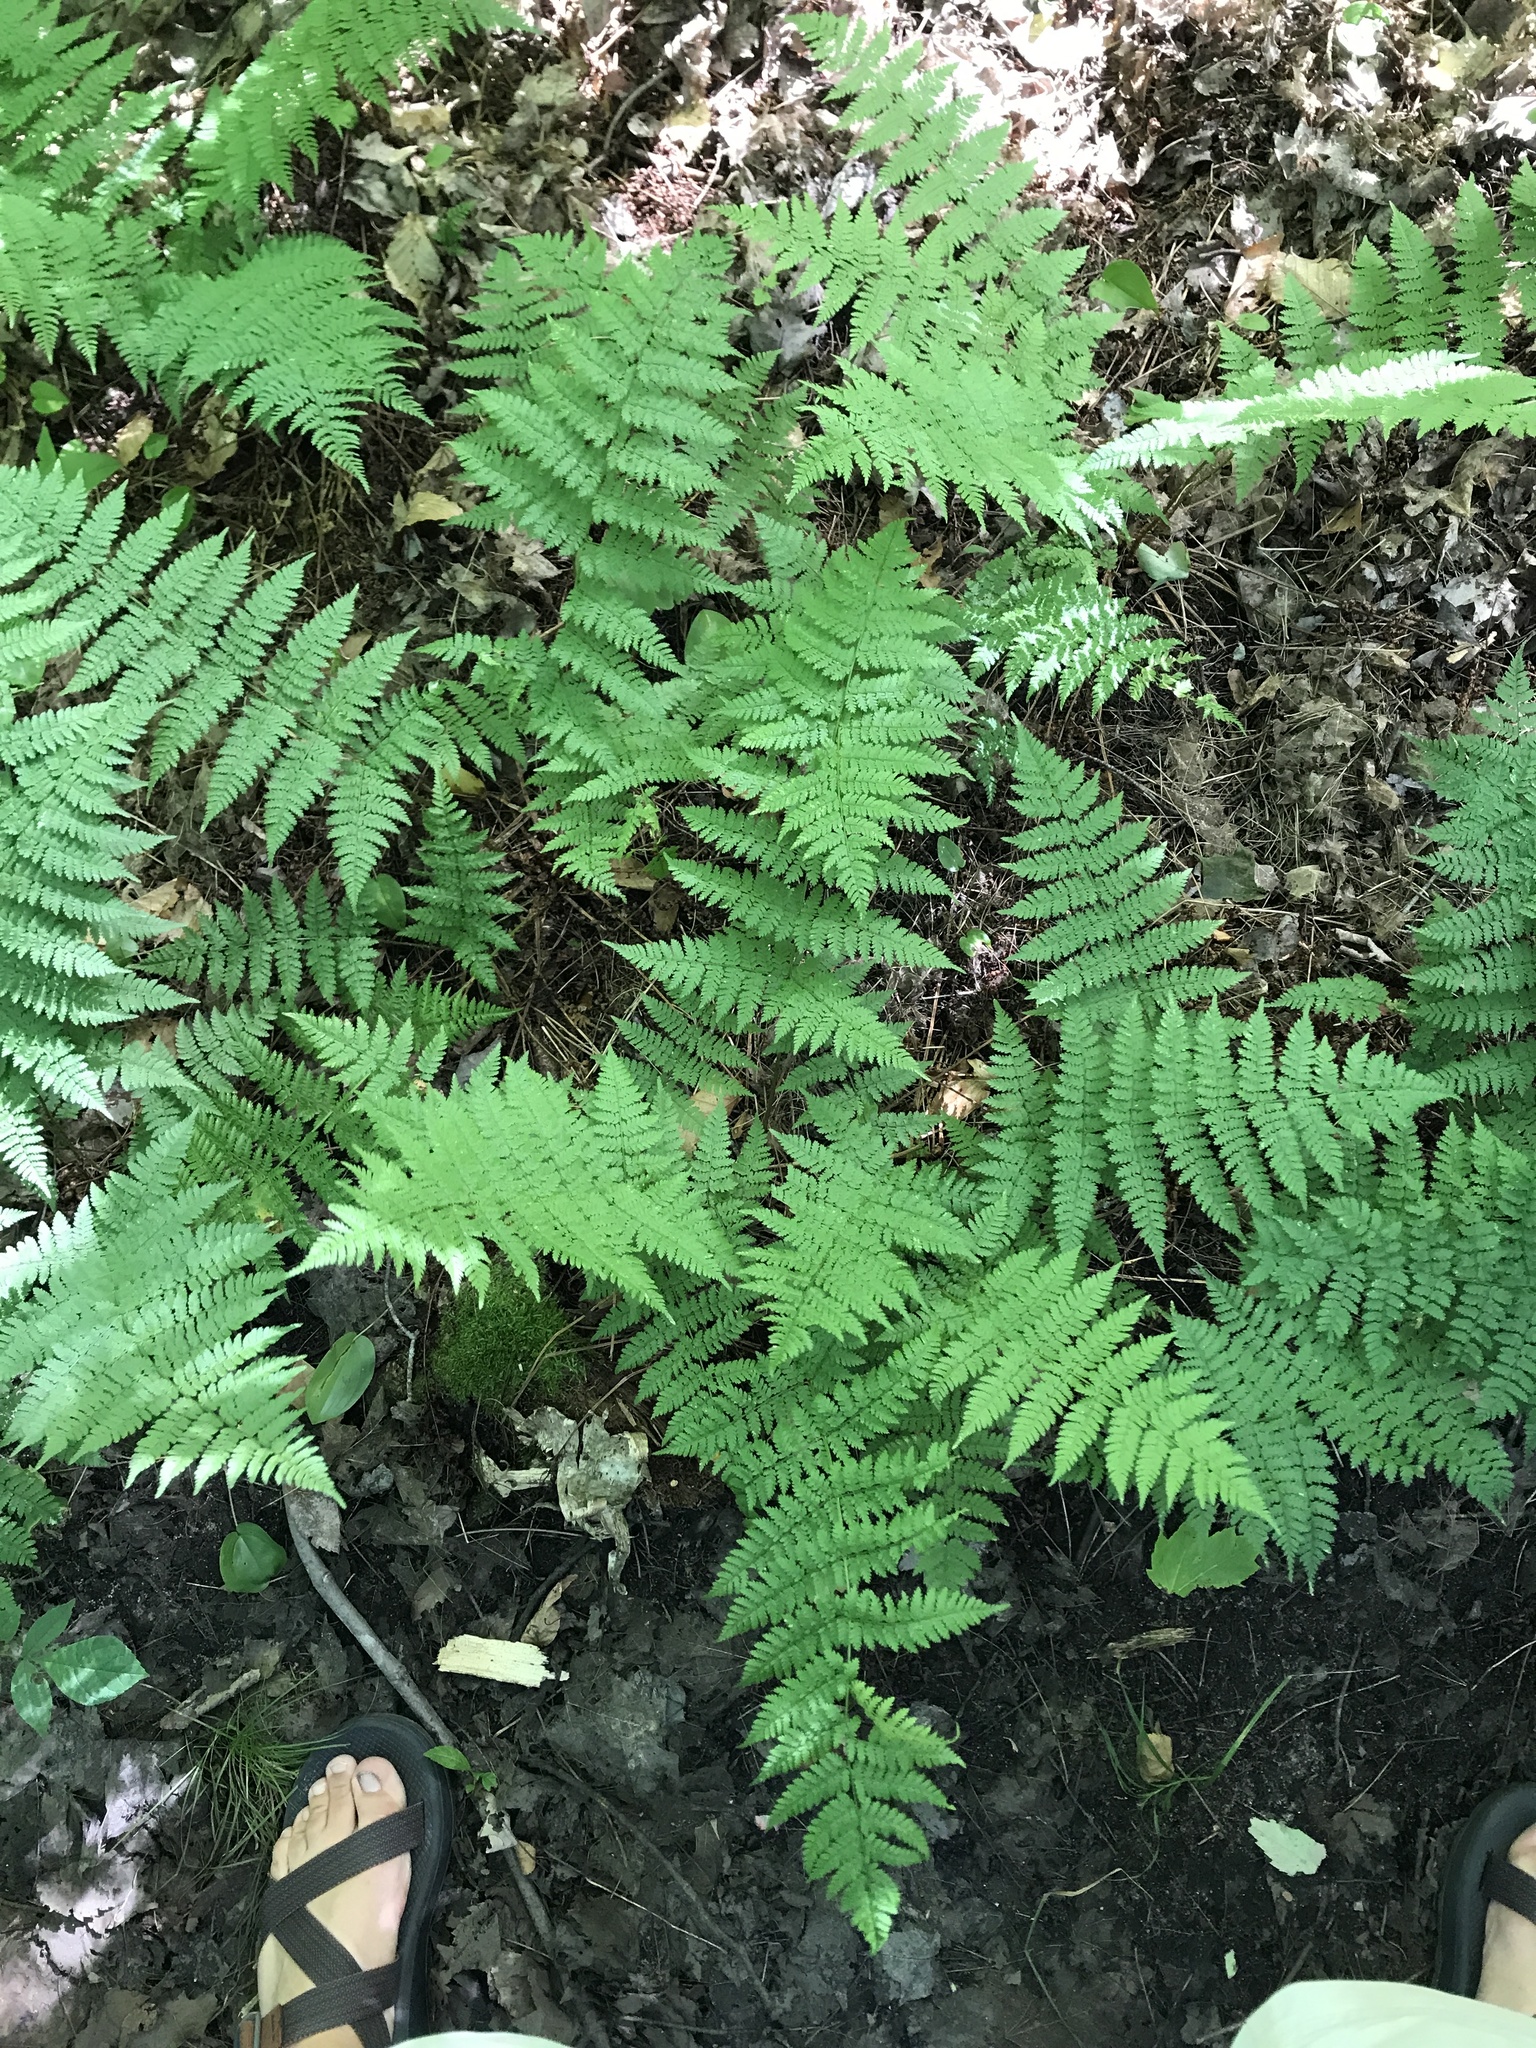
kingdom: Plantae
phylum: Tracheophyta
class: Polypodiopsida
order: Polypodiales
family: Dryopteridaceae
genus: Dryopteris
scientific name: Dryopteris intermedia
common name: Evergreen wood fern
